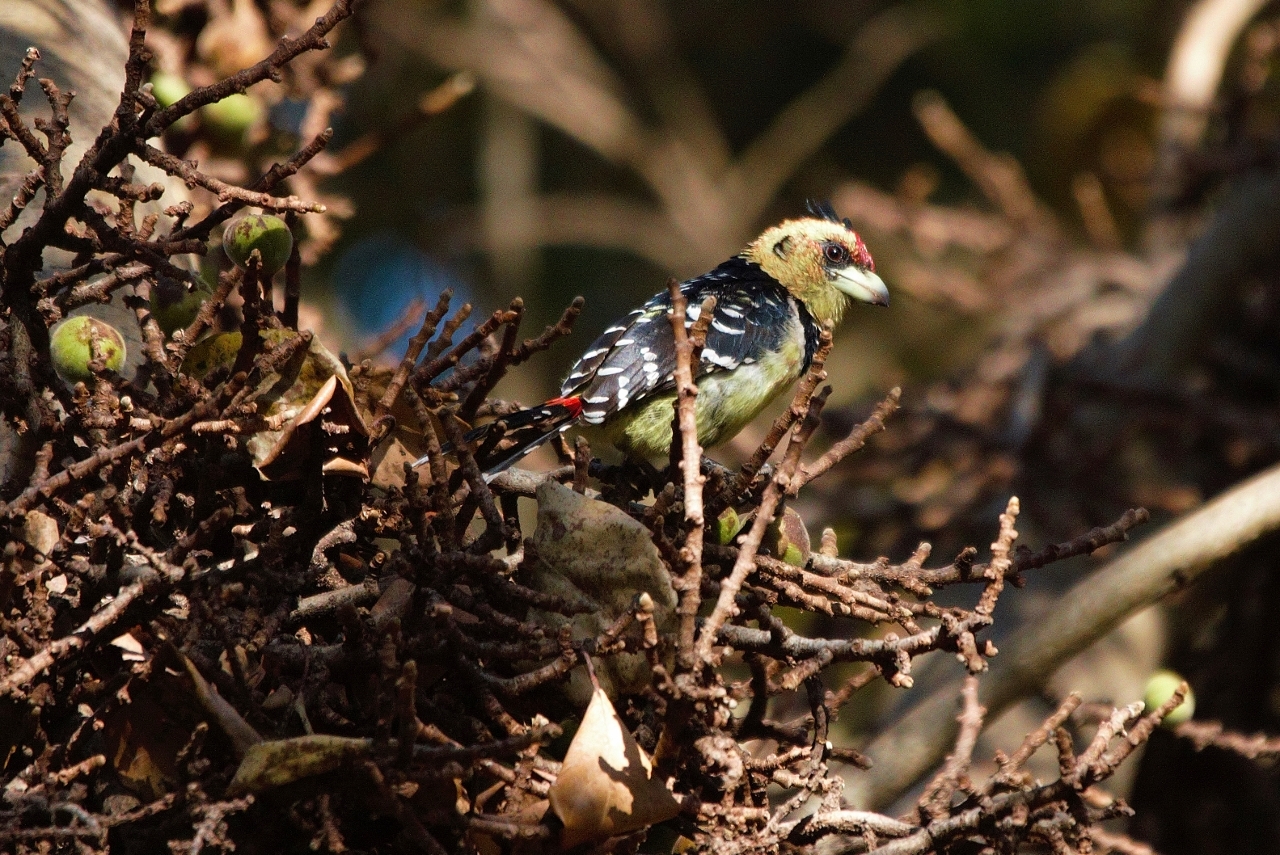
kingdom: Animalia
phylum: Chordata
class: Aves
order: Piciformes
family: Lybiidae
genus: Trachyphonus
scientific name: Trachyphonus vaillantii
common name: Crested barbet
